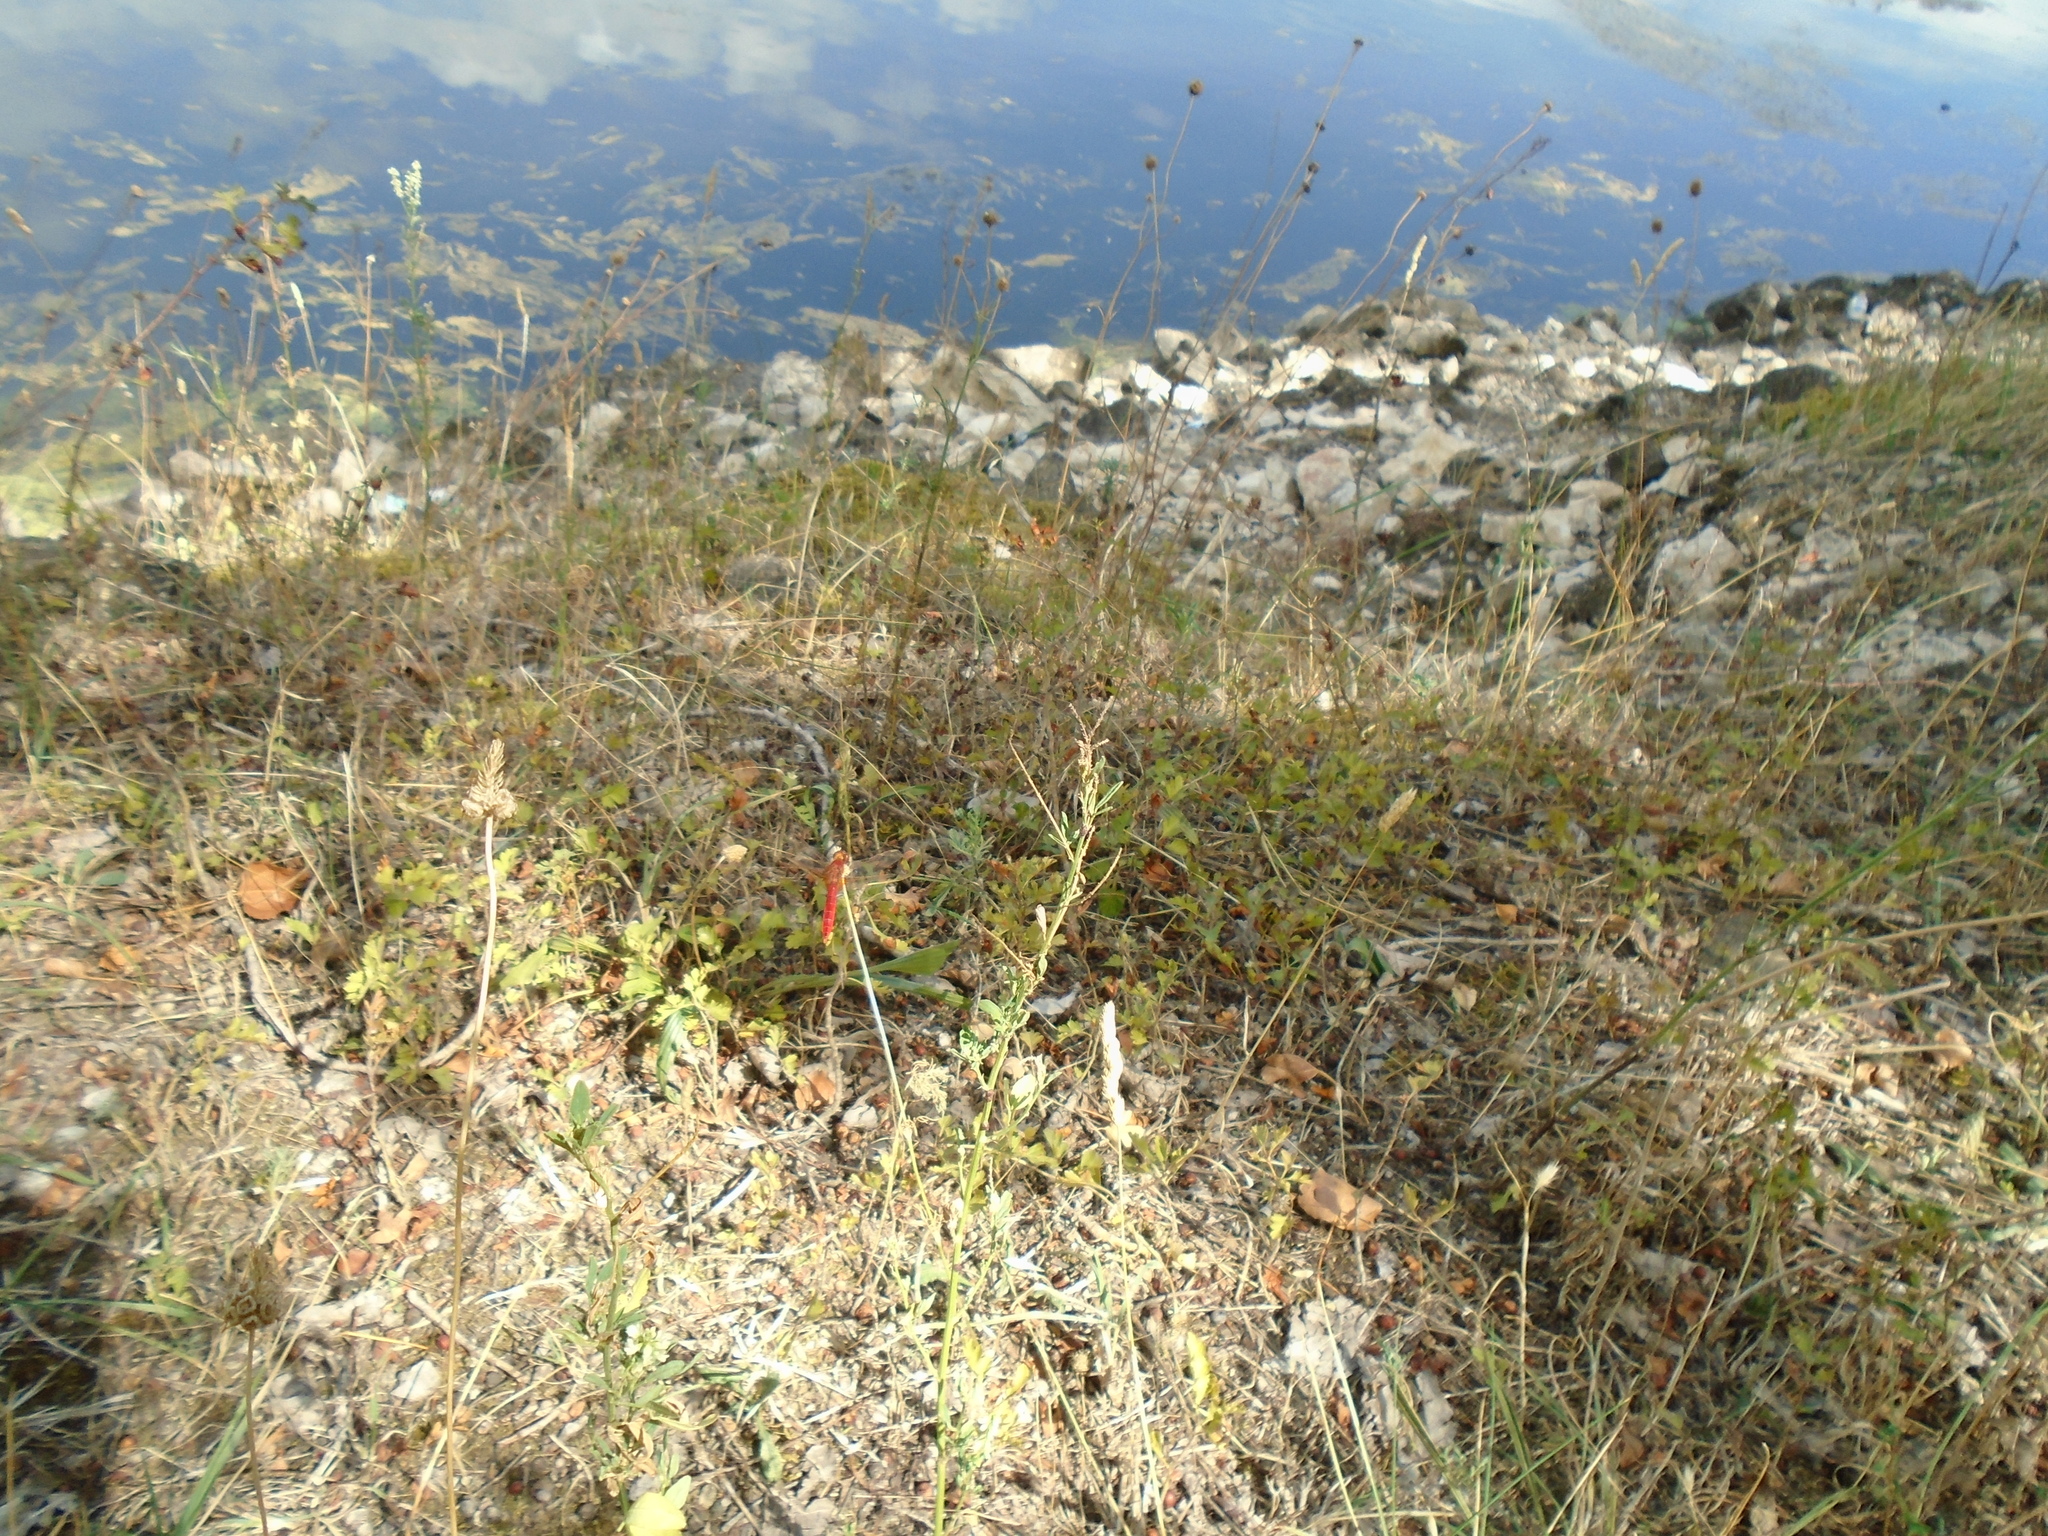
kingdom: Animalia
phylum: Arthropoda
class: Insecta
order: Odonata
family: Libellulidae
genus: Crocothemis
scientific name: Crocothemis erythraea
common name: Scarlet dragonfly
